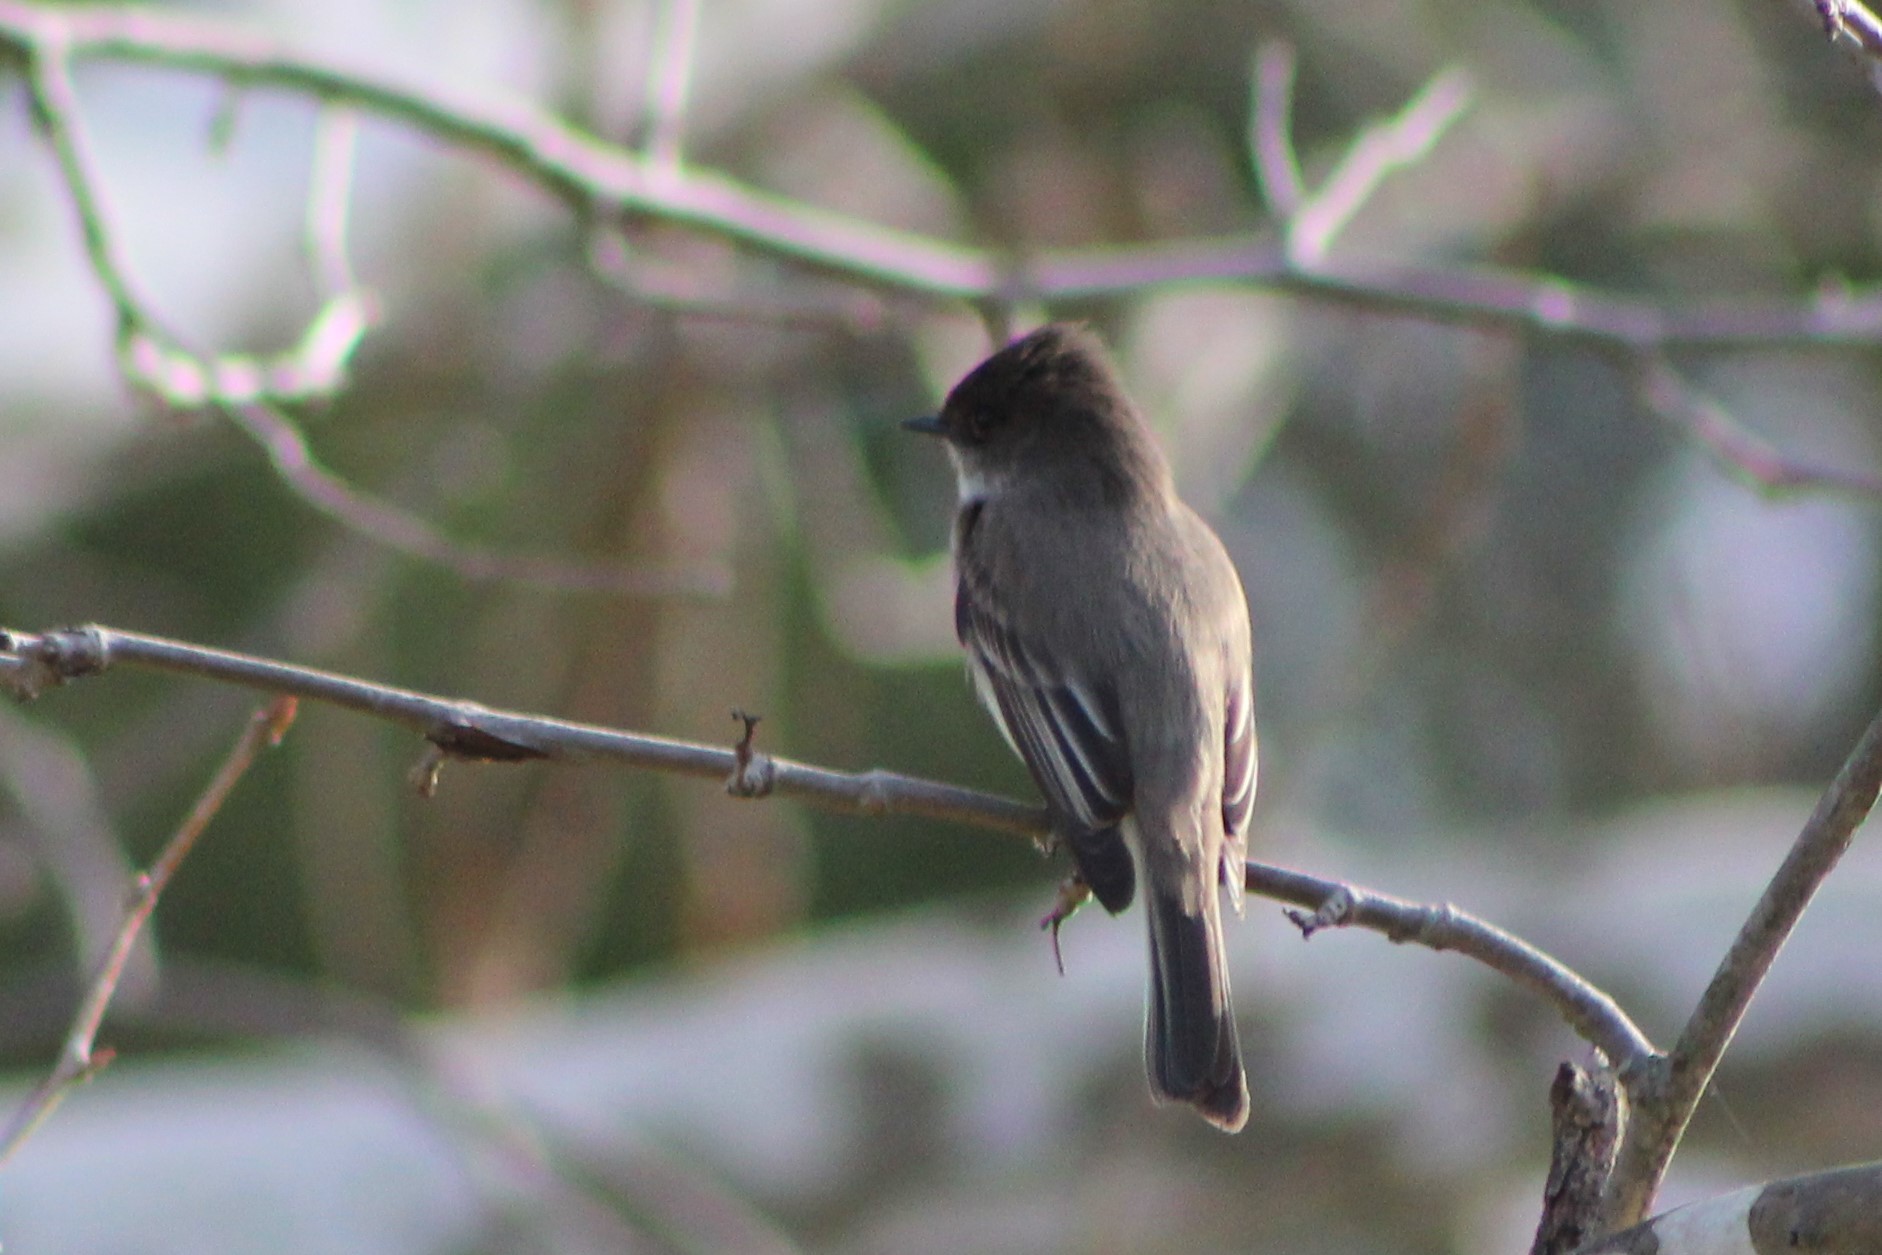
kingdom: Animalia
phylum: Chordata
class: Aves
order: Passeriformes
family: Tyrannidae
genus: Sayornis
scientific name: Sayornis phoebe
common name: Eastern phoebe
